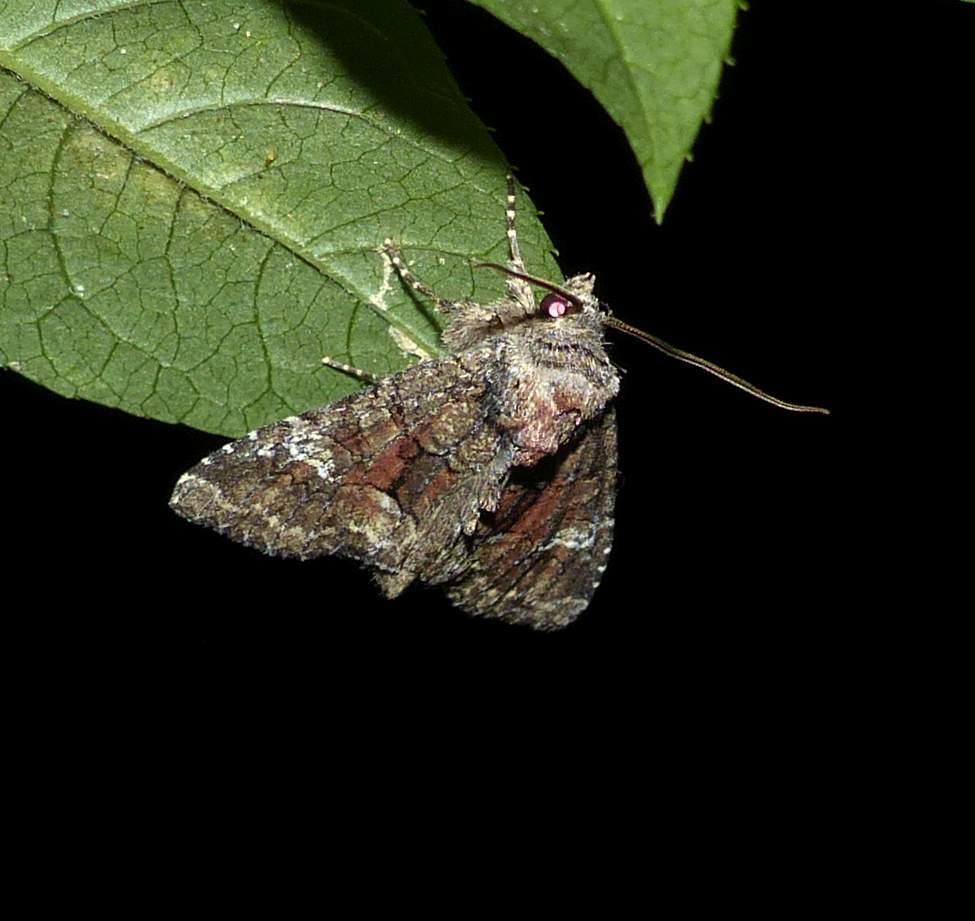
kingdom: Animalia
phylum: Arthropoda
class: Insecta
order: Lepidoptera
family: Noctuidae
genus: Fishia
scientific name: Fishia illocata
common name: Wandering brocade moth
